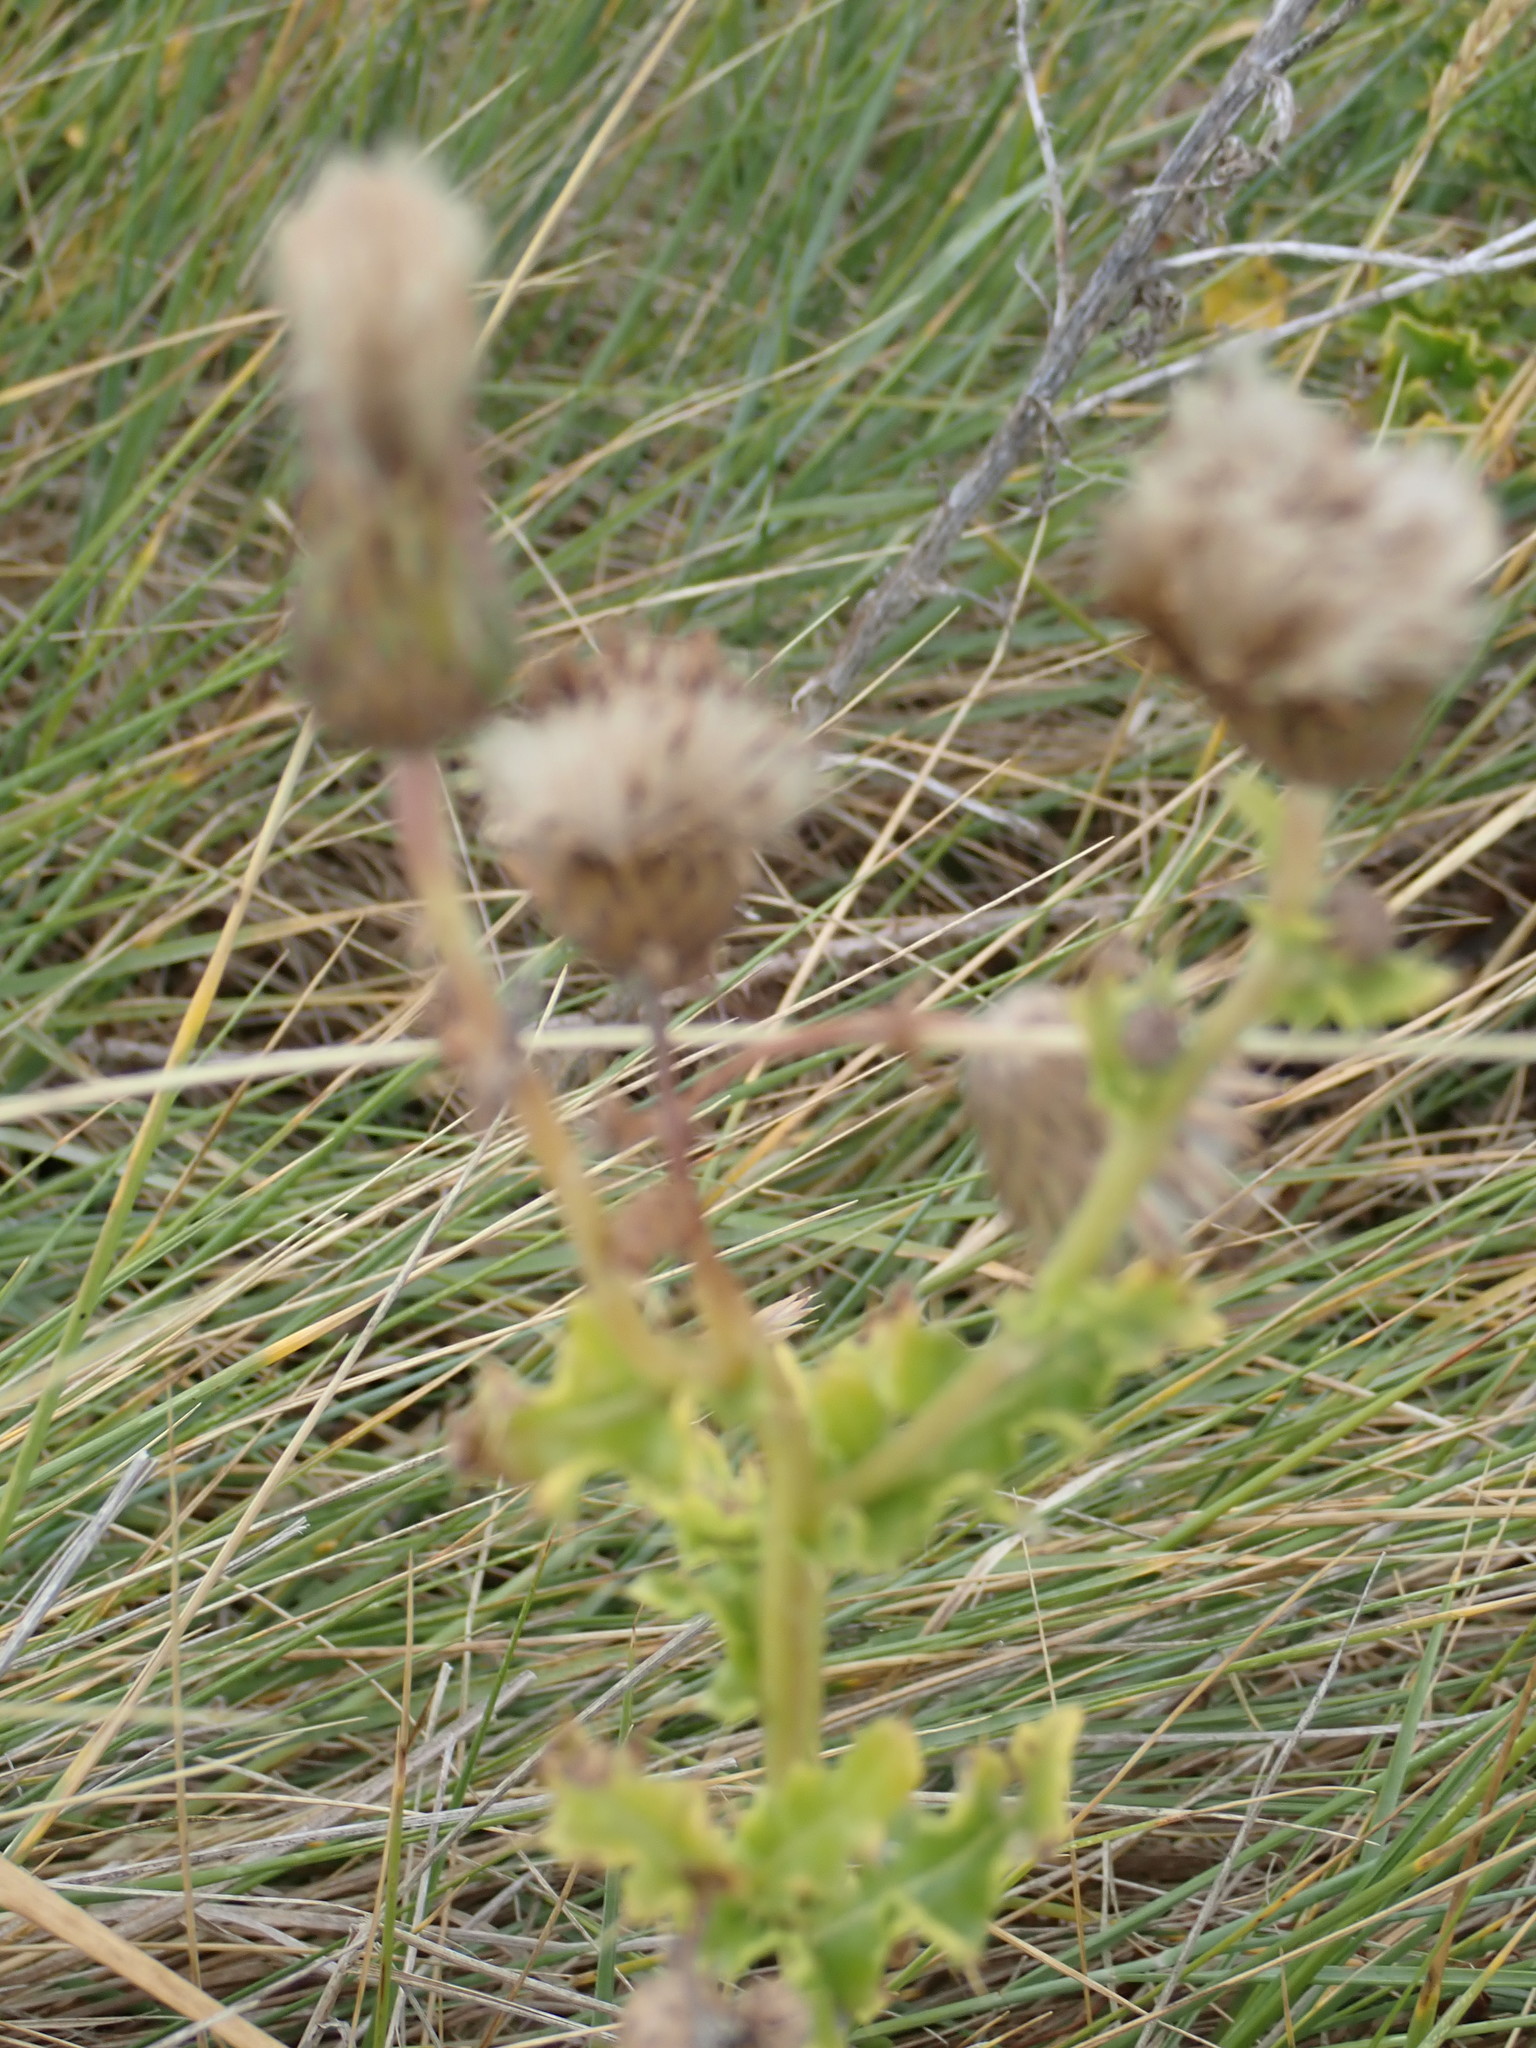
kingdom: Plantae
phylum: Tracheophyta
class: Magnoliopsida
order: Asterales
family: Asteraceae
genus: Cirsium
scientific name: Cirsium arvense
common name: Creeping thistle
